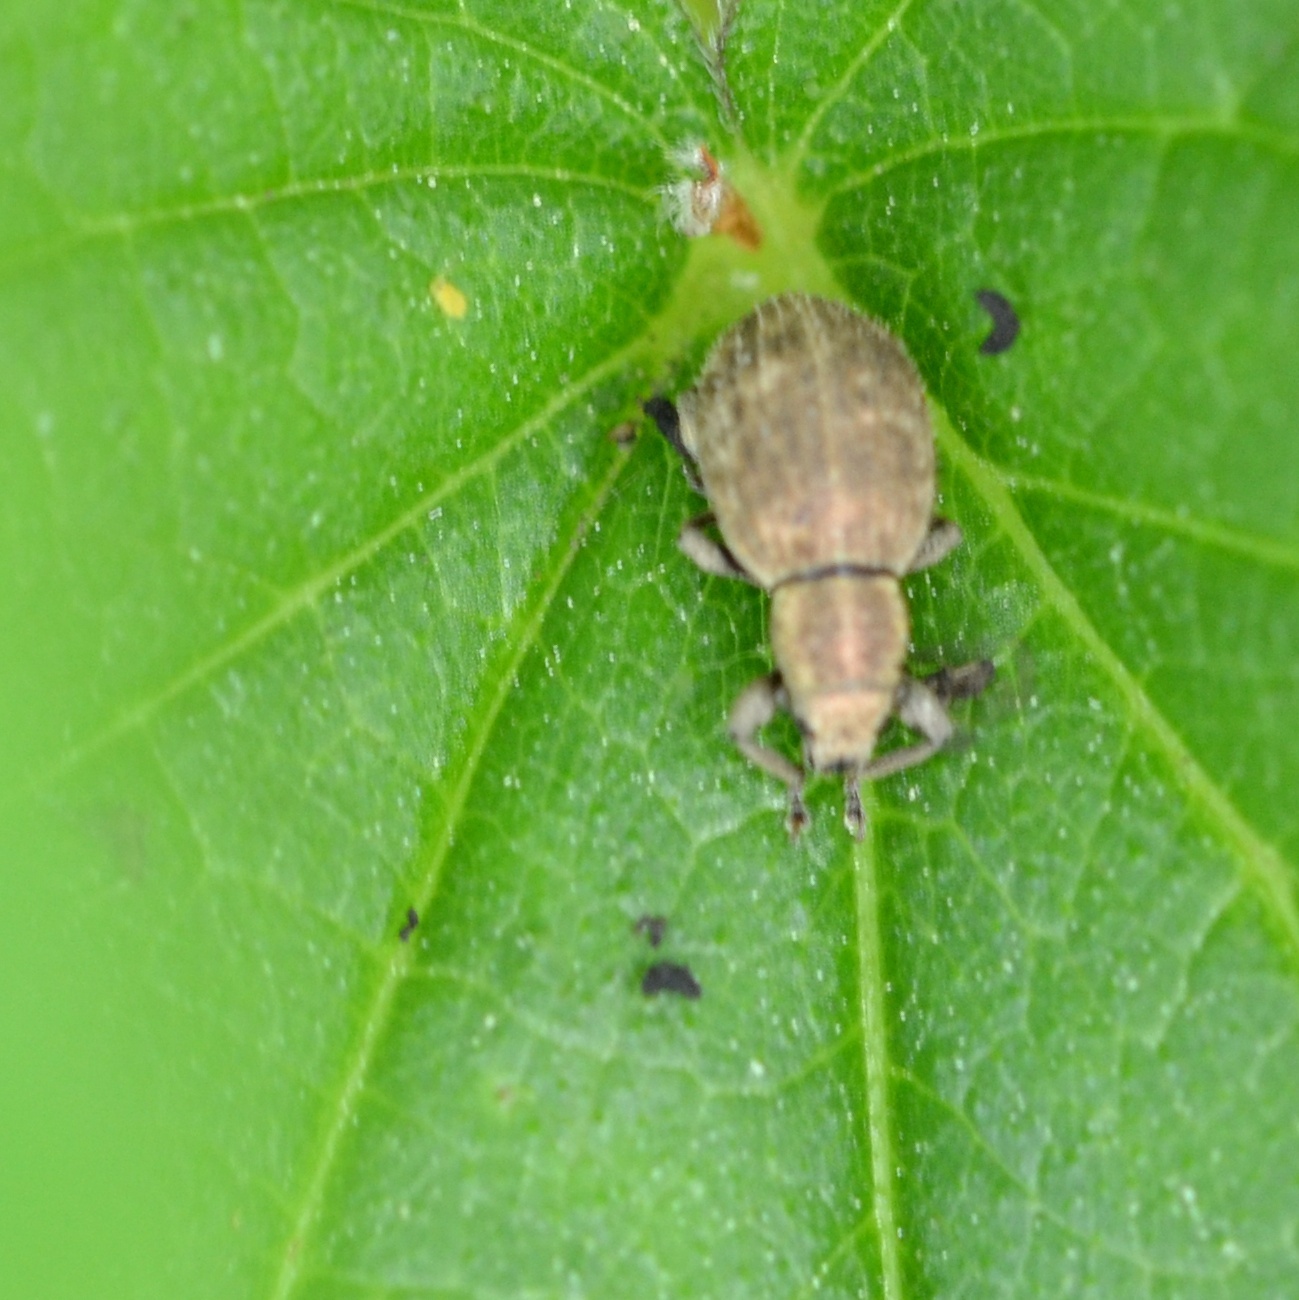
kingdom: Animalia
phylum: Arthropoda
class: Insecta
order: Coleoptera
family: Curculionidae
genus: Sciaphilus
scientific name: Sciaphilus asperatus
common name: Weevil
